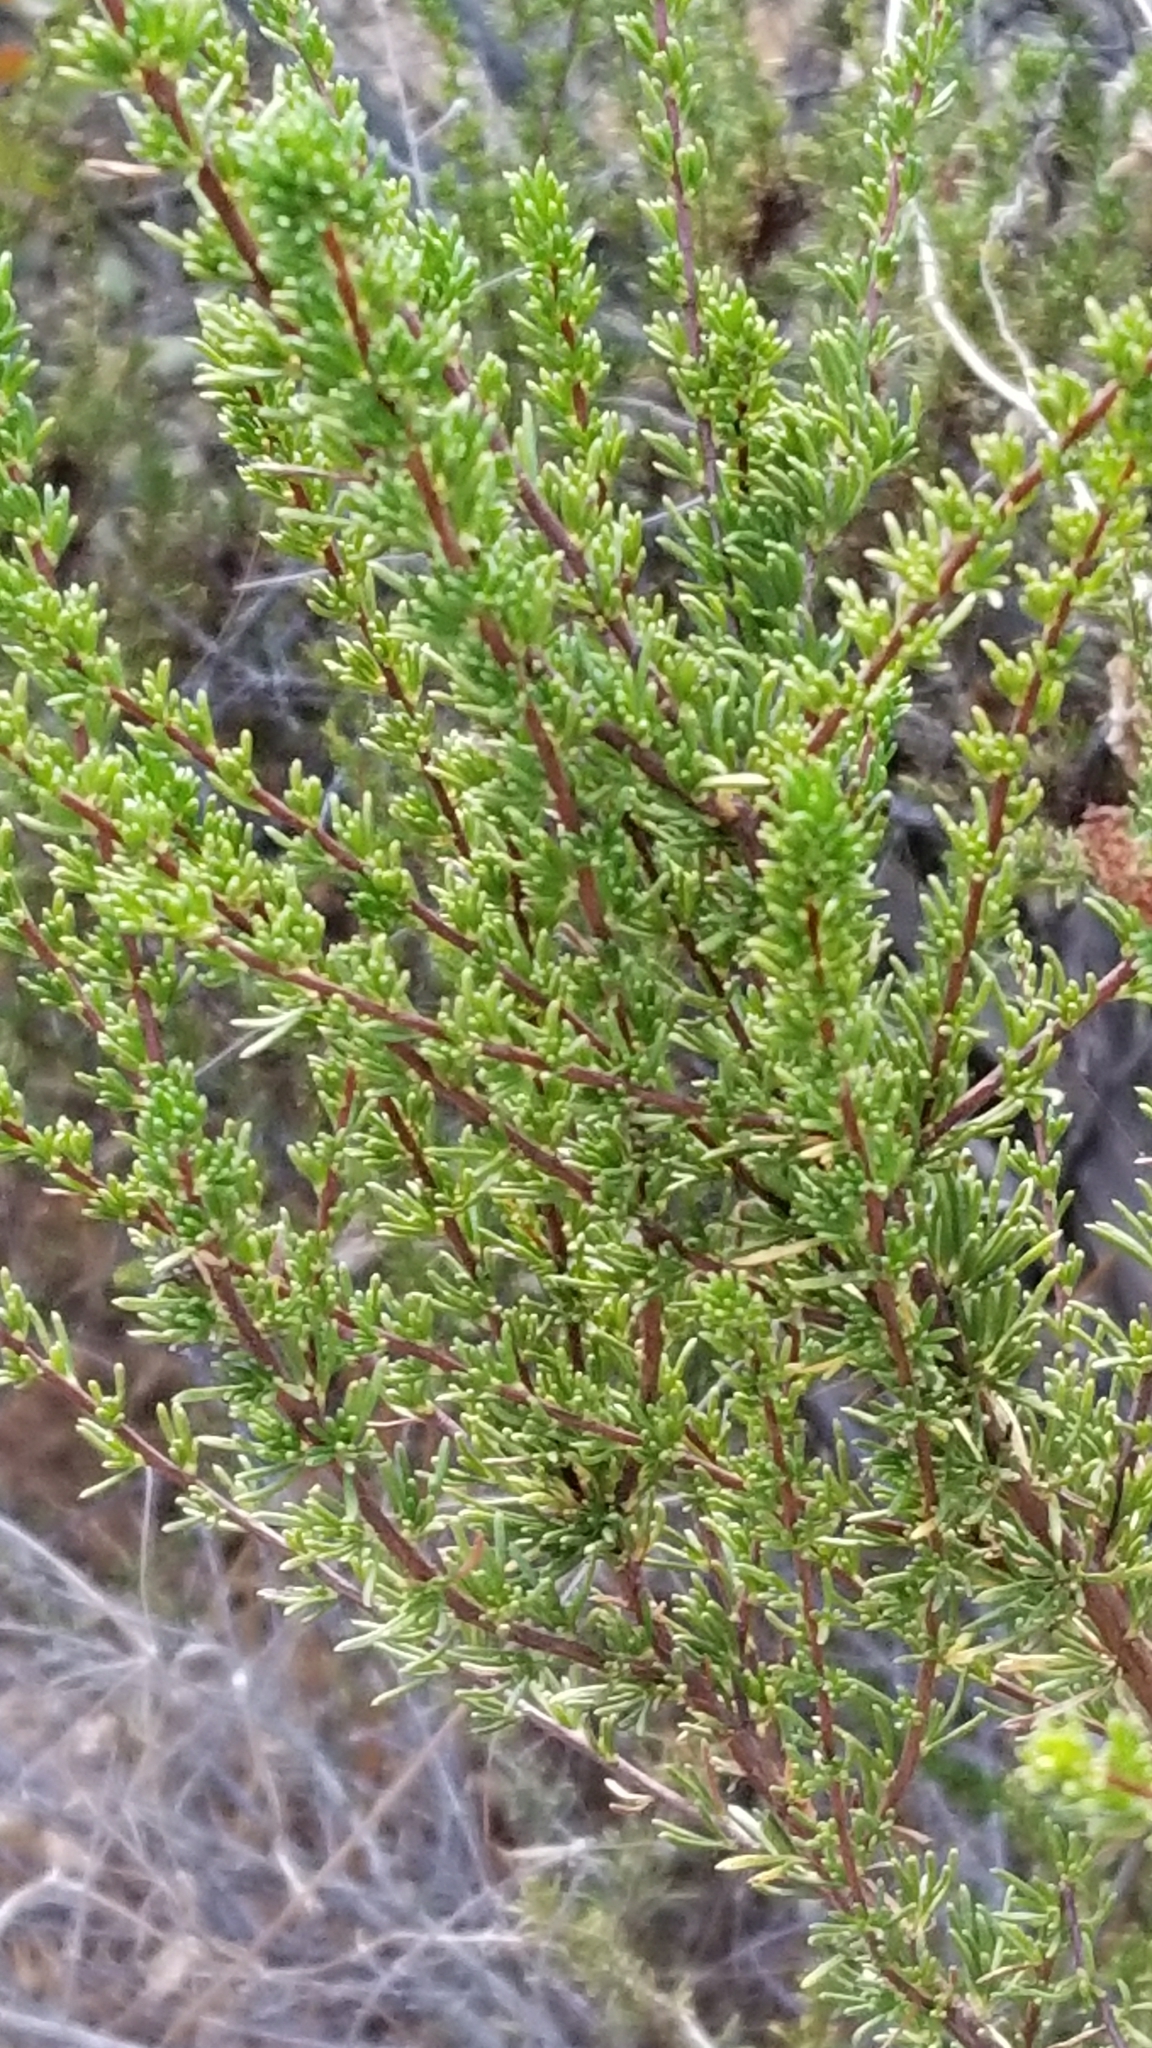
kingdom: Plantae
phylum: Tracheophyta
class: Magnoliopsida
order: Rosales
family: Rosaceae
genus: Adenostoma
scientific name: Adenostoma fasciculatum
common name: Chamise
